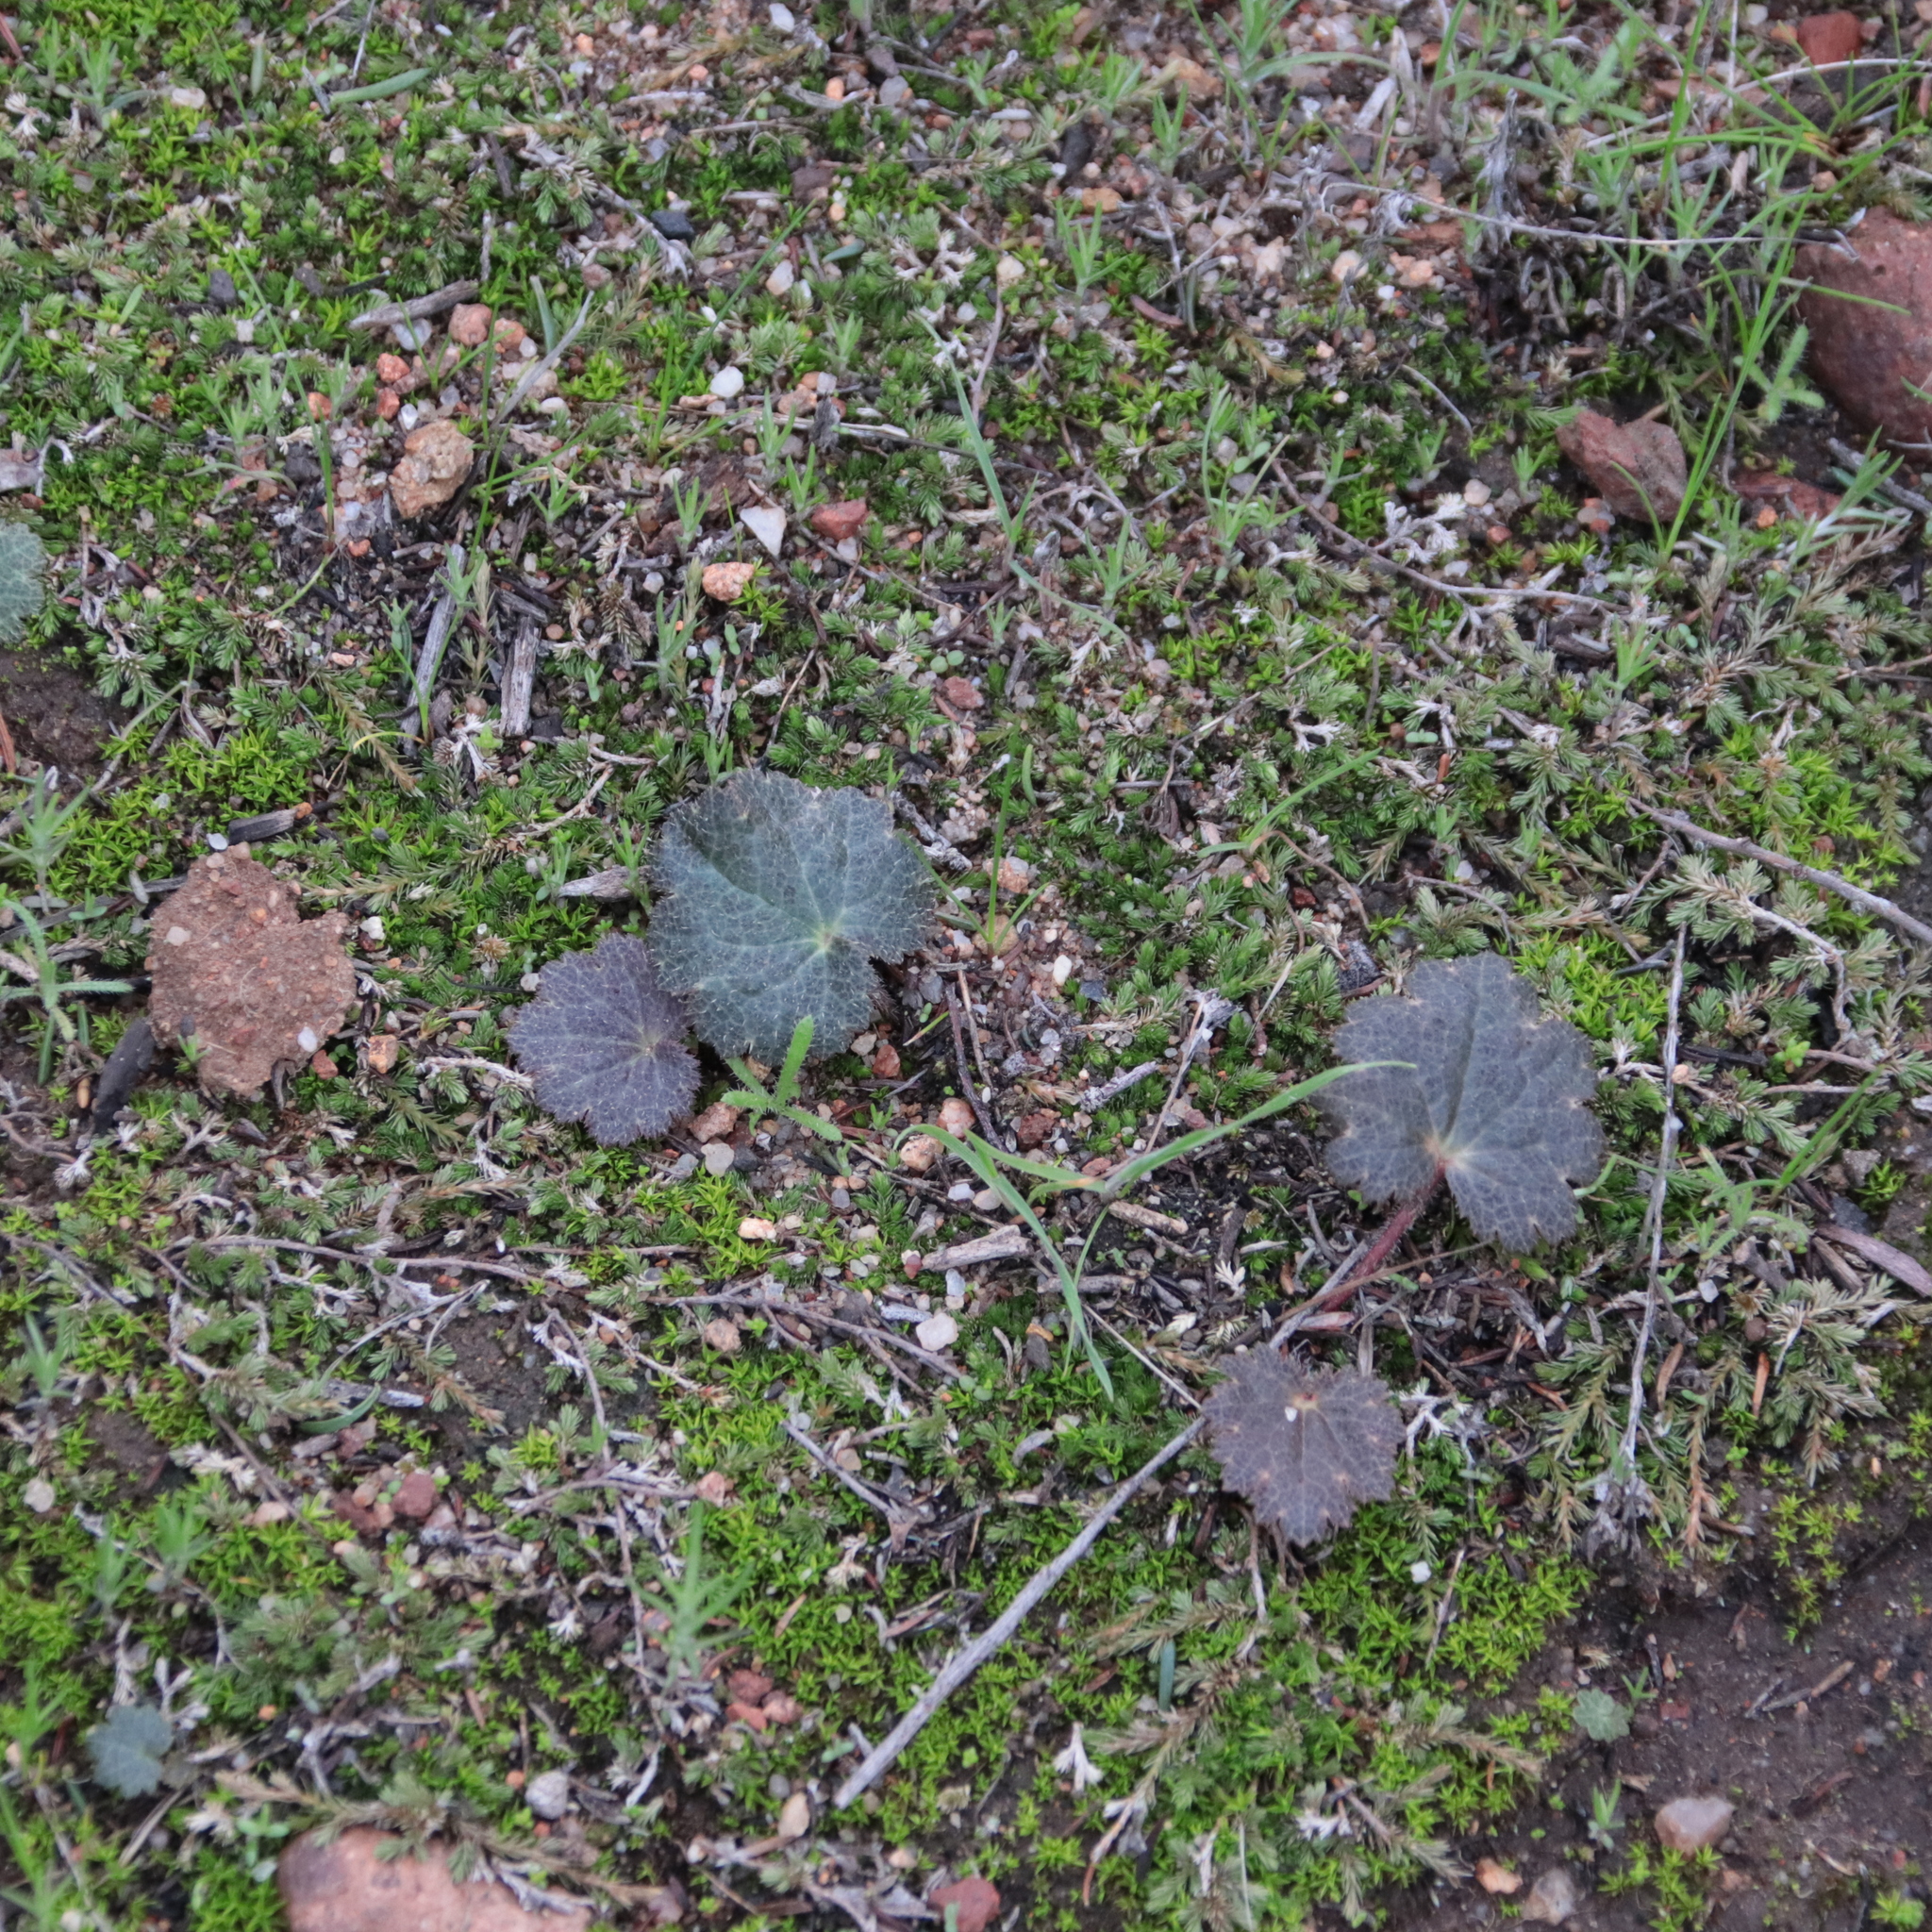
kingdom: Plantae
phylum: Tracheophyta
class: Magnoliopsida
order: Saxifragales
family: Saxifragaceae
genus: Jepsonia
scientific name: Jepsonia parryi
